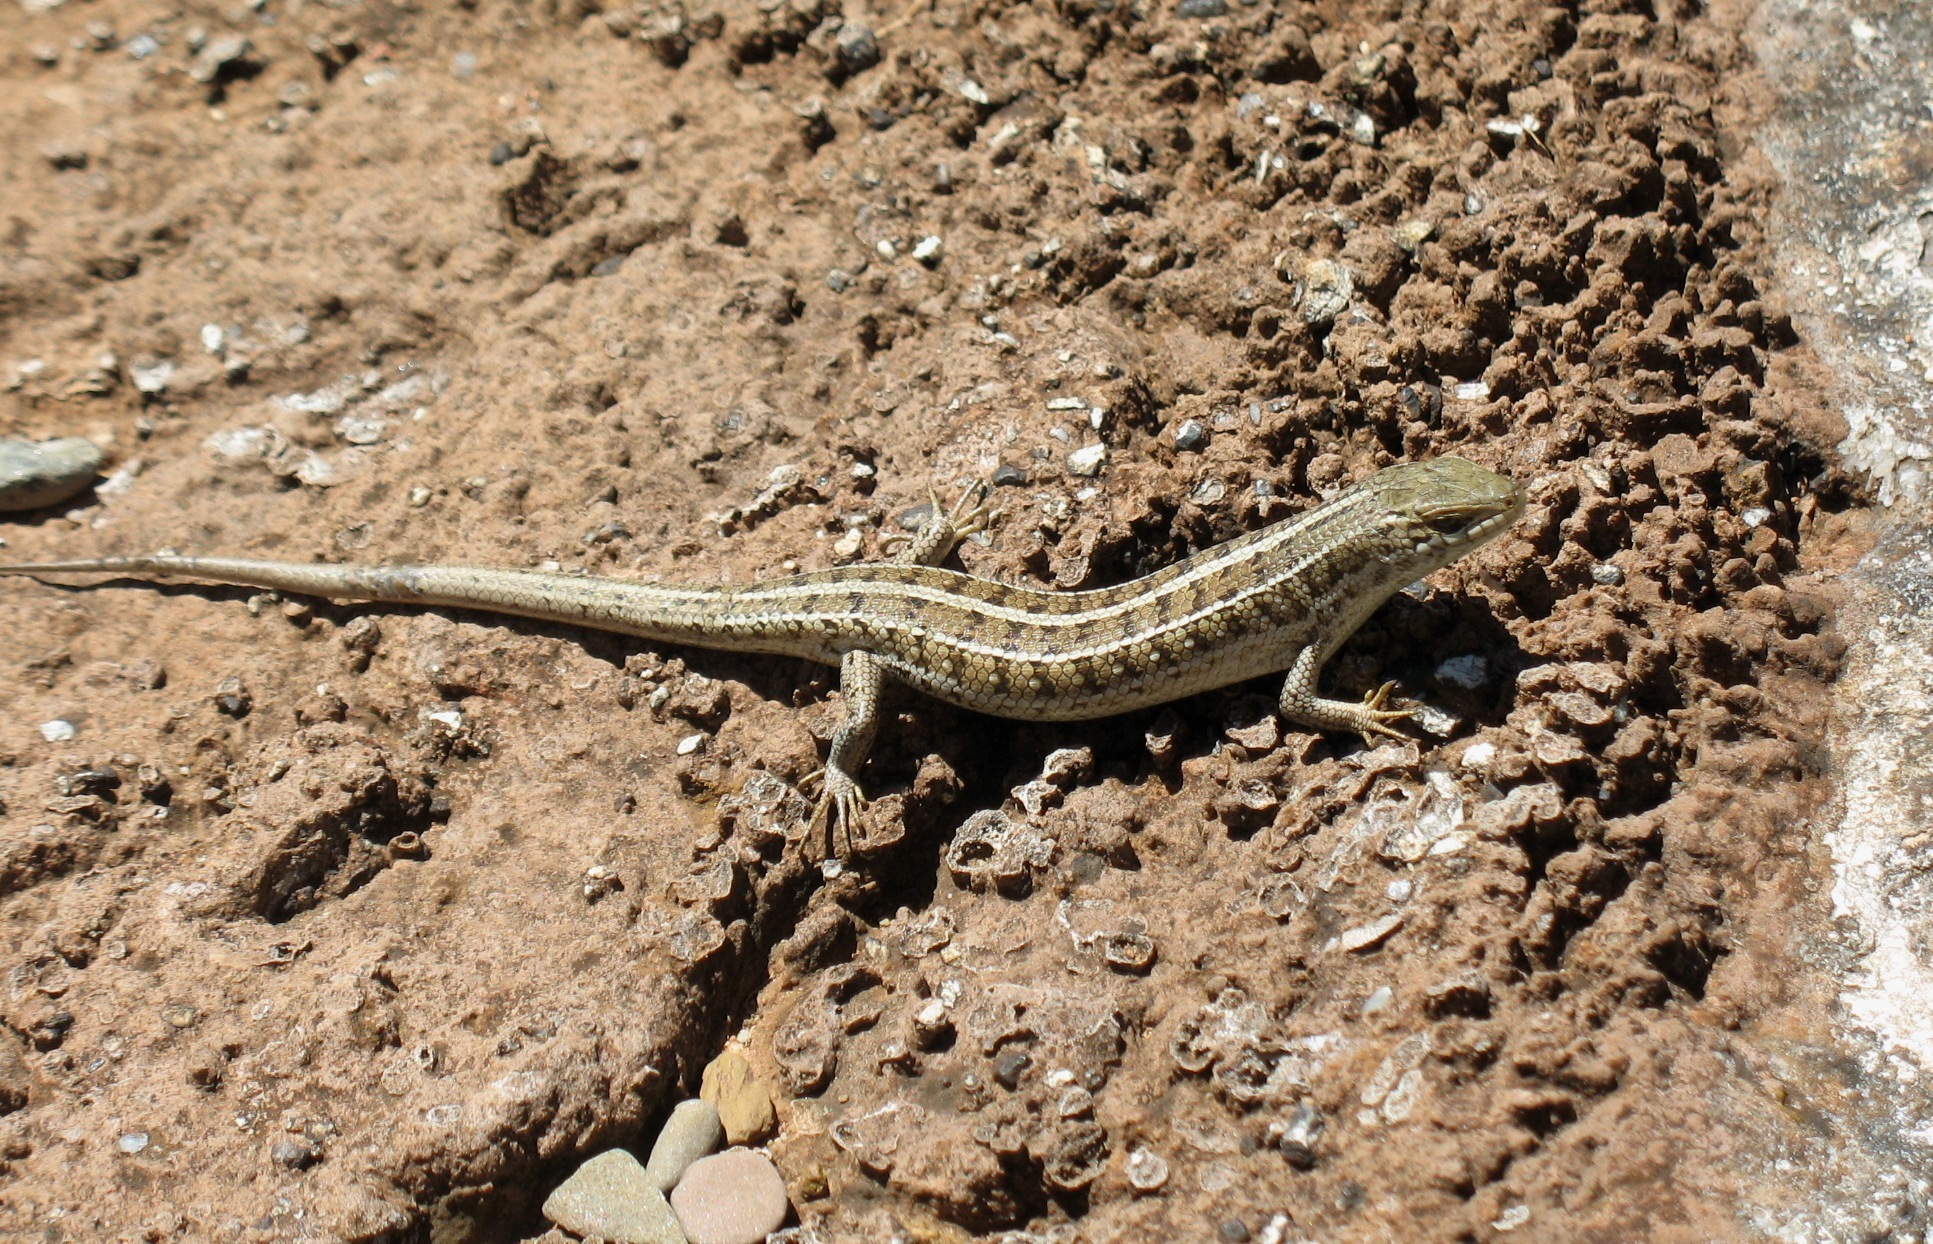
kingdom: Animalia
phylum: Chordata
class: Squamata
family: Scincidae
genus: Trachylepis
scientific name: Trachylepis capensis
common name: Cape skink
